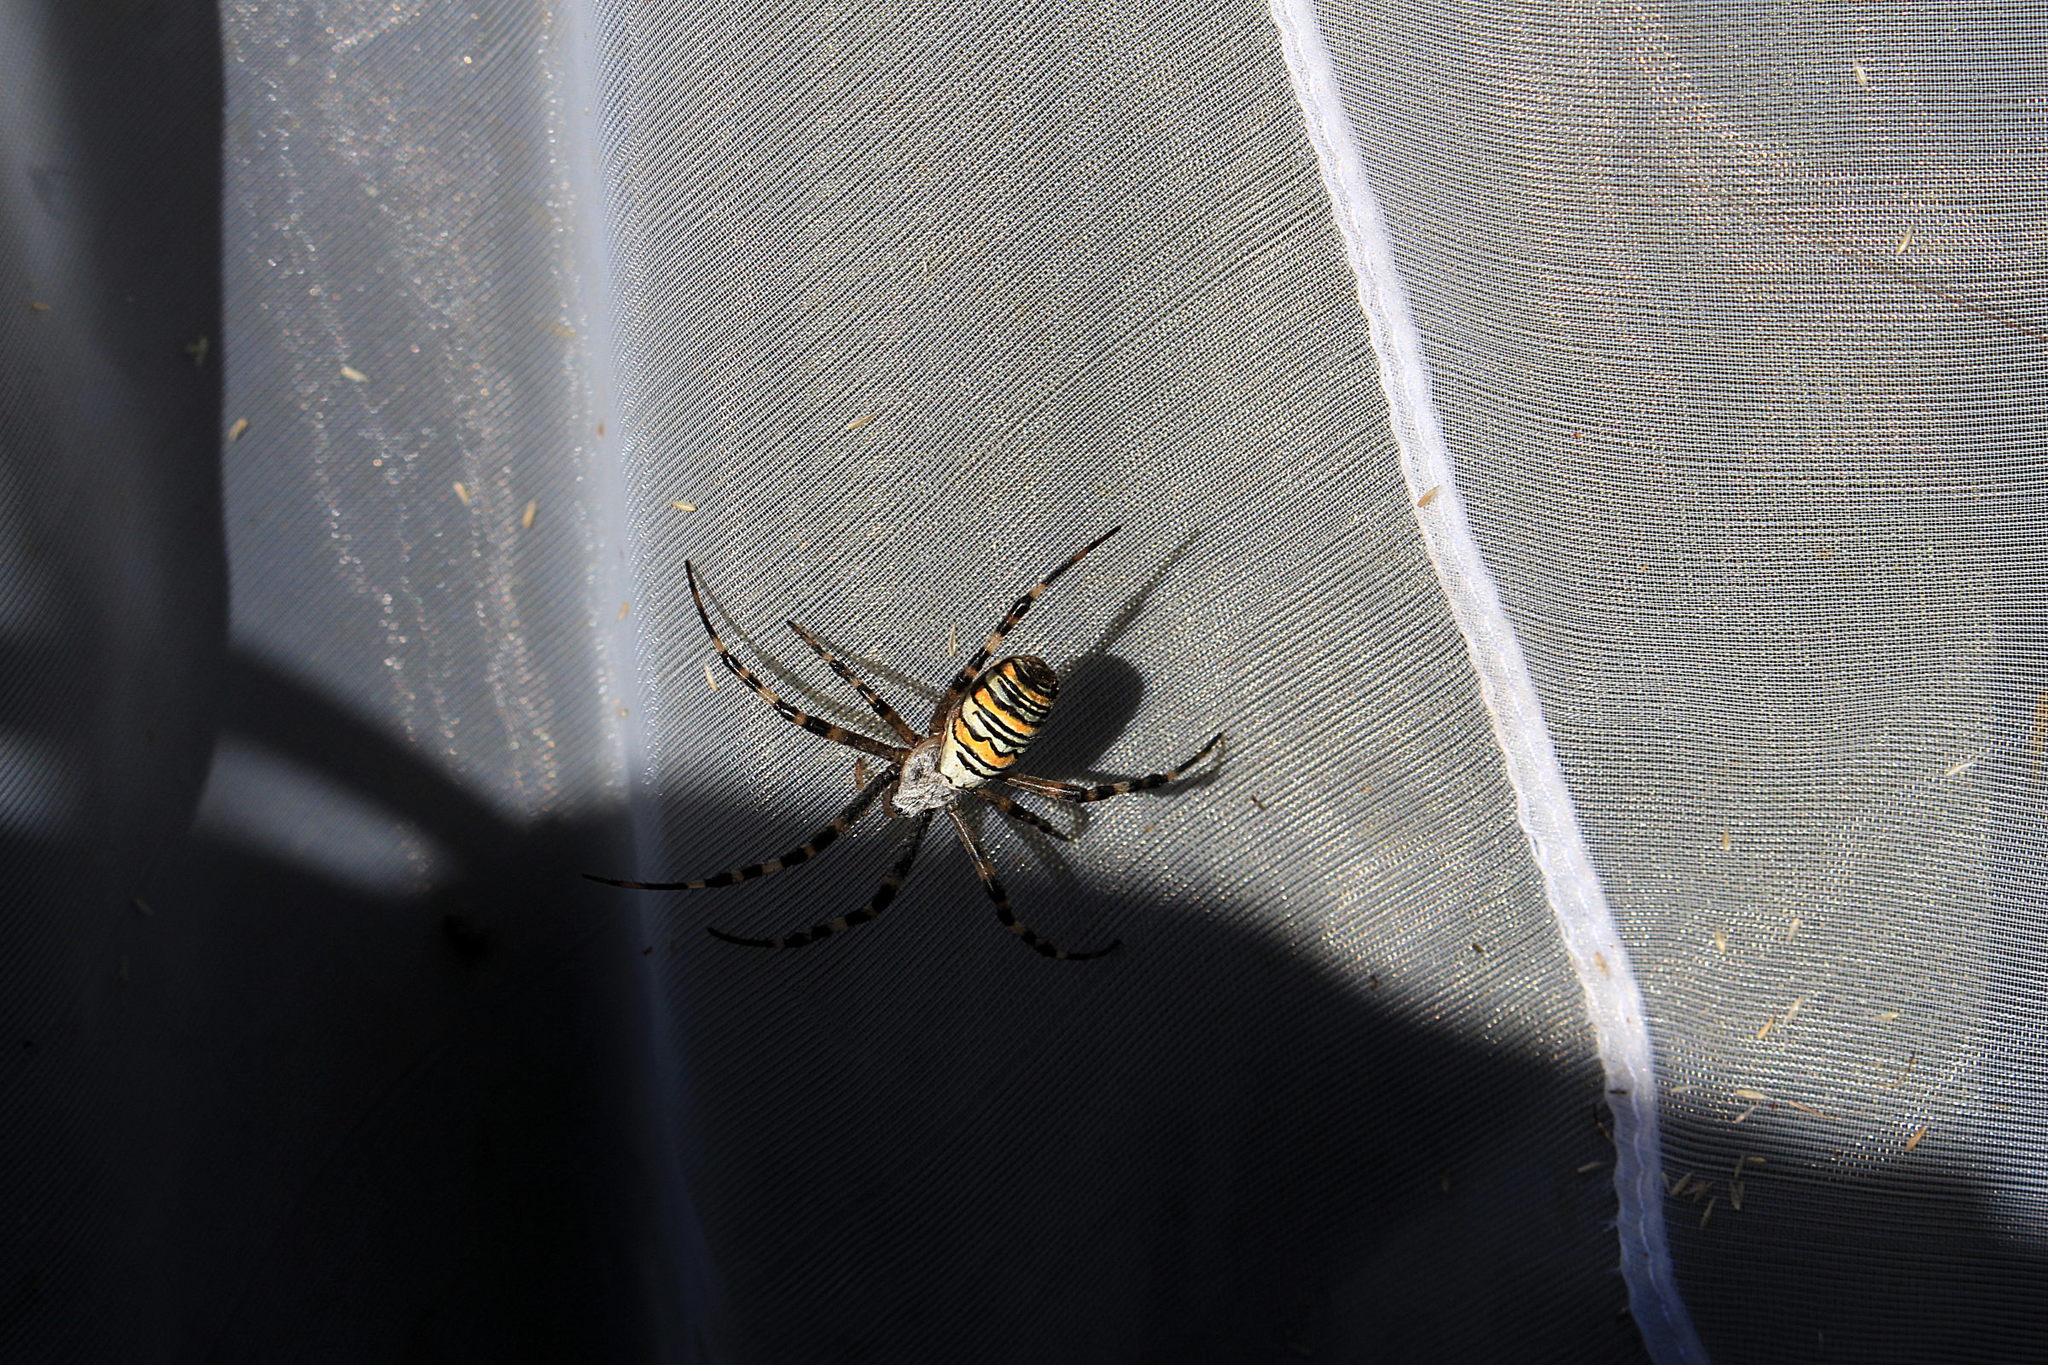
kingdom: Animalia
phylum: Arthropoda
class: Arachnida
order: Araneae
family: Araneidae
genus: Argiope
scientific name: Argiope bruennichi
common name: Wasp spider
